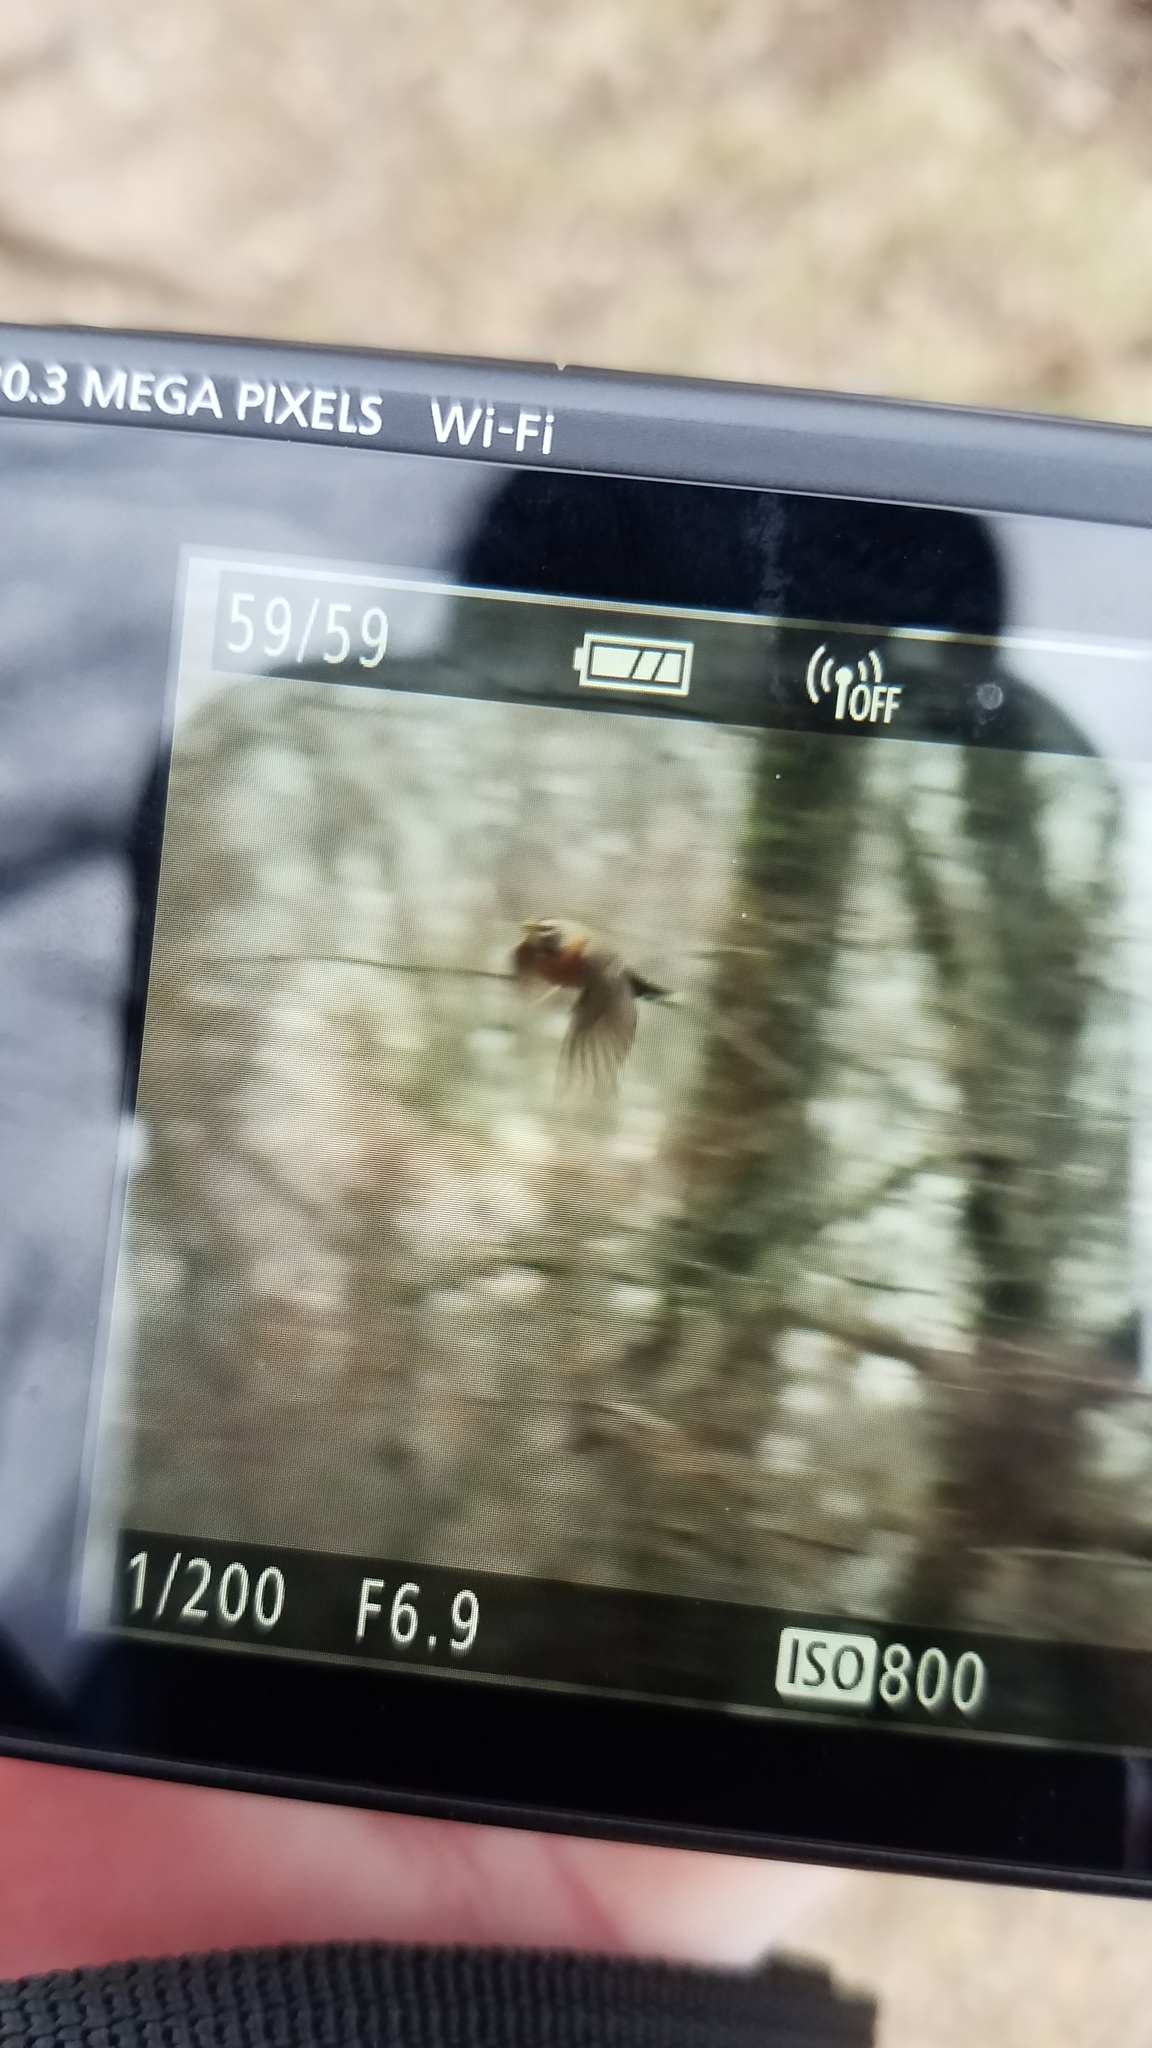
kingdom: Animalia
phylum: Chordata
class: Aves
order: Passeriformes
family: Turdidae
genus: Turdus
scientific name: Turdus migratorius
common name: American robin
